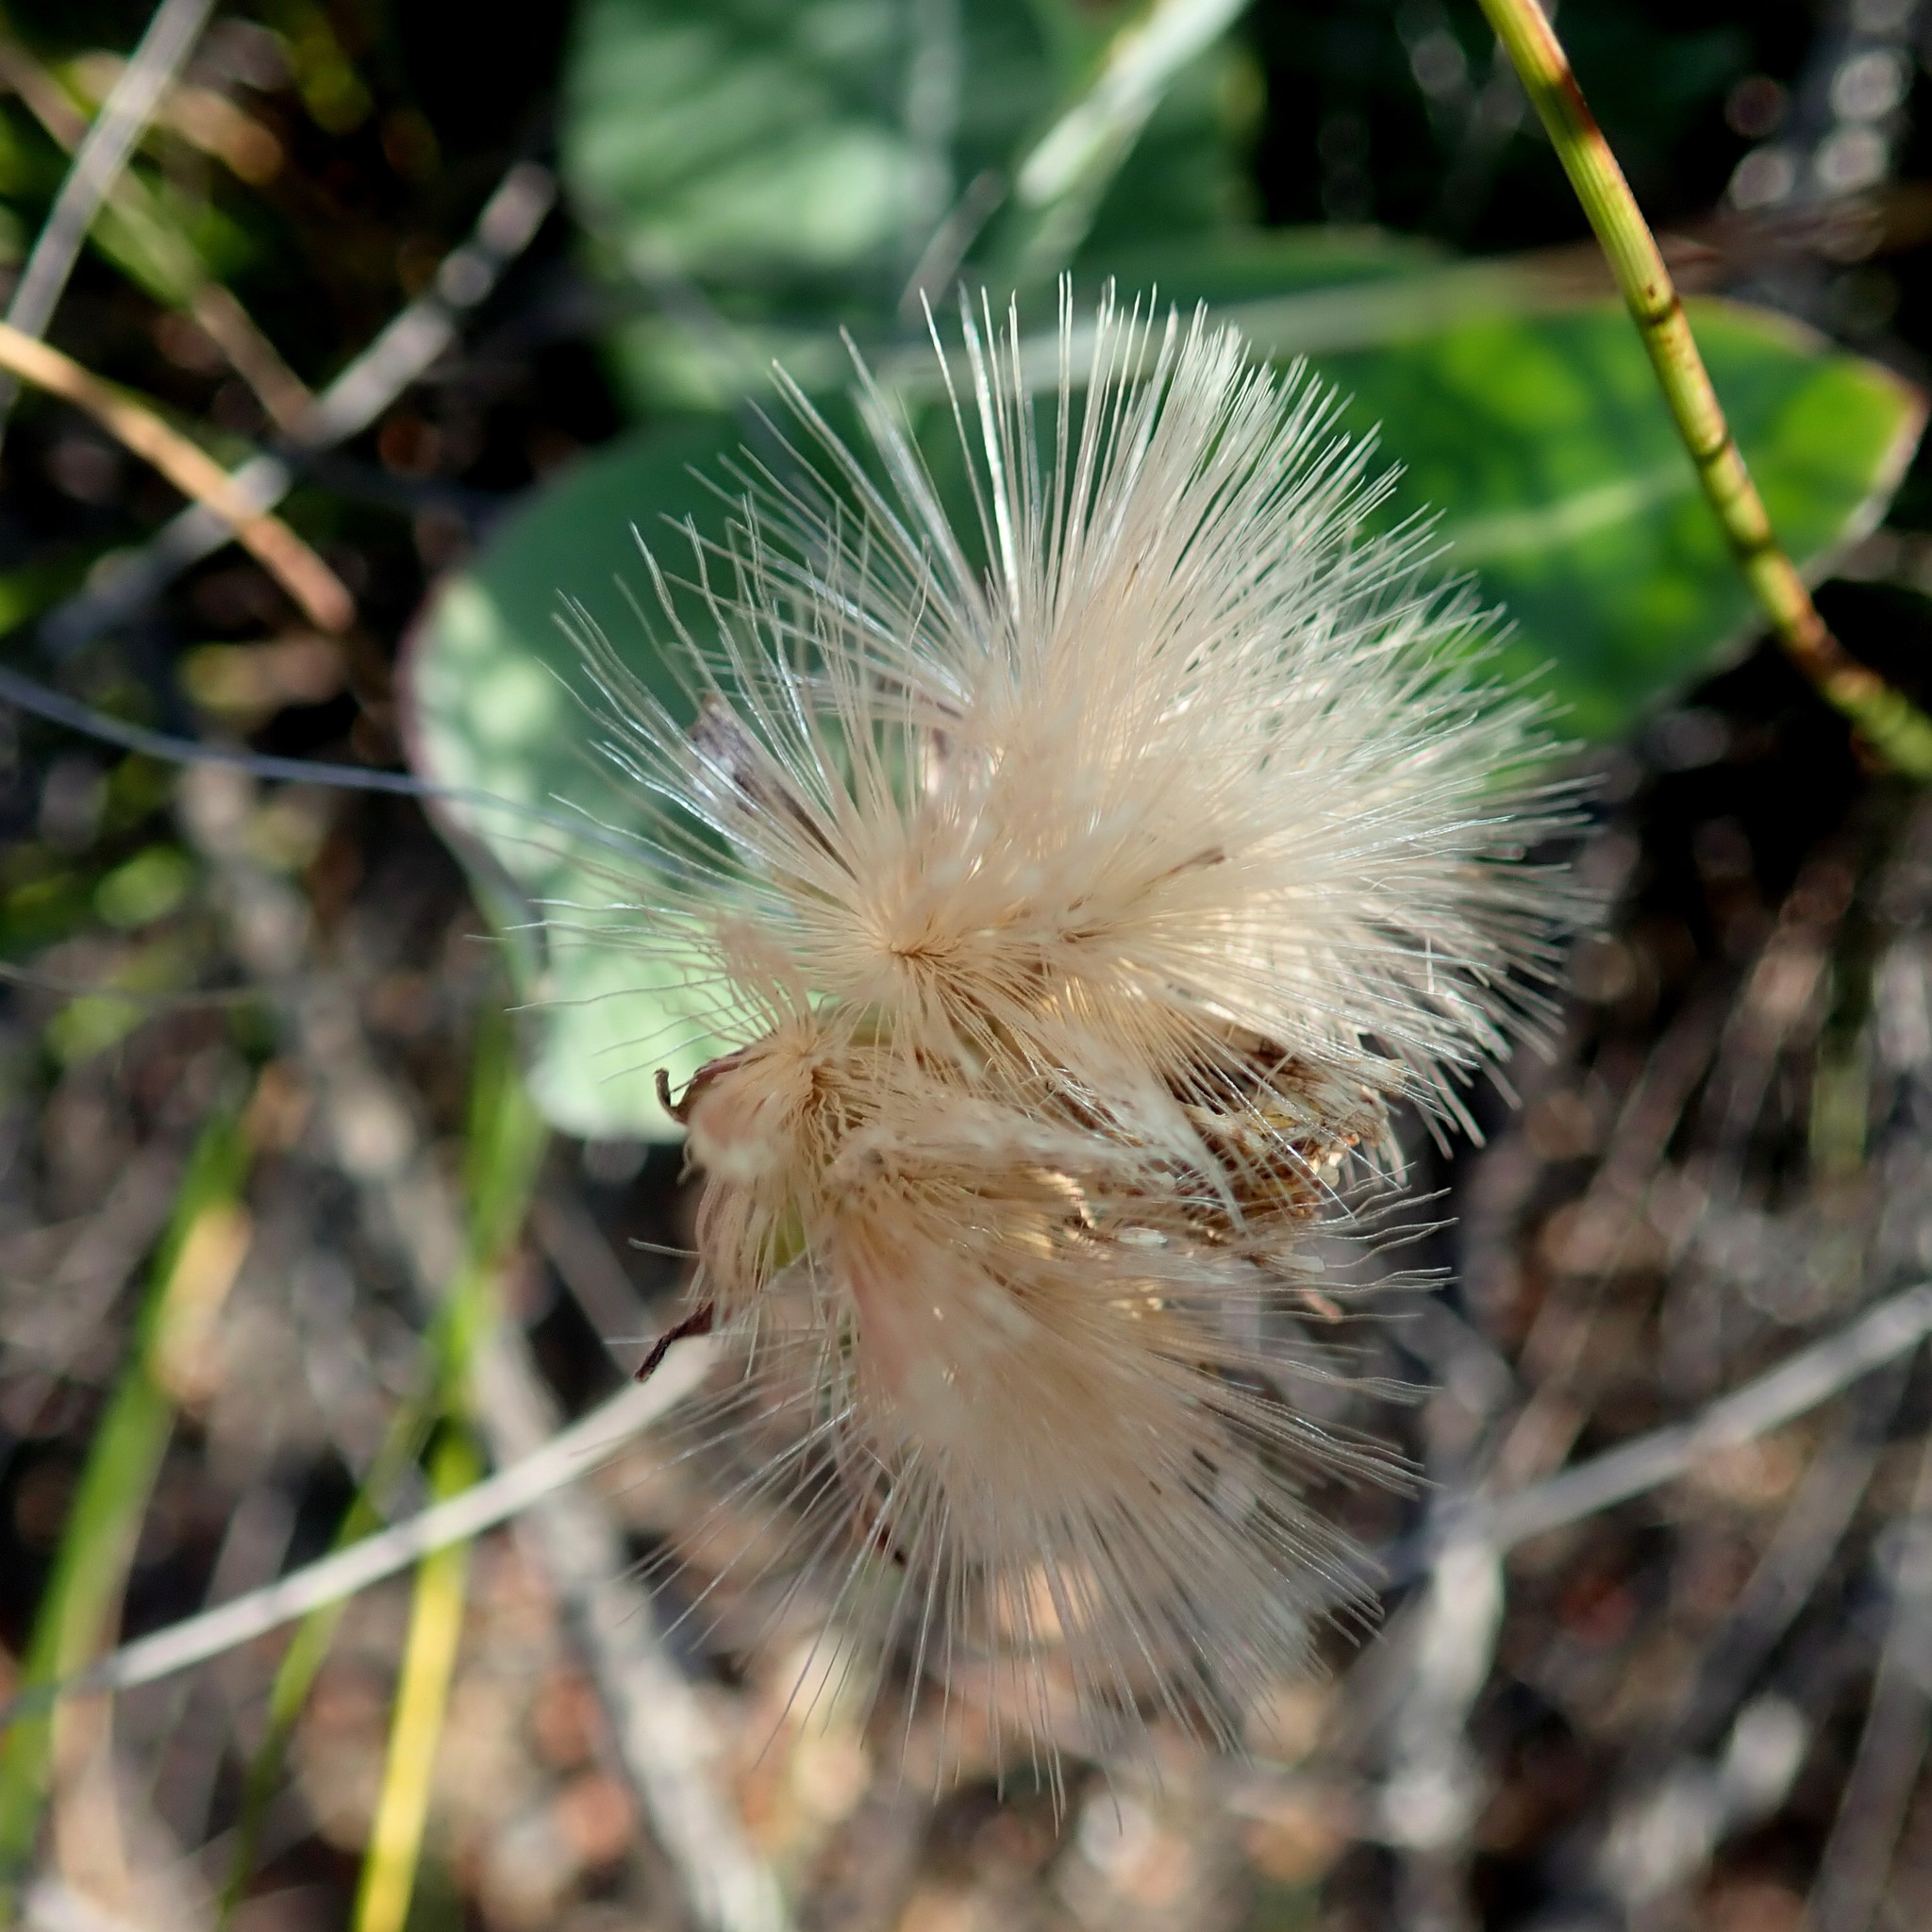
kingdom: Plantae
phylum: Tracheophyta
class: Magnoliopsida
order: Asterales
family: Asteraceae
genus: Othonna
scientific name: Othonna gymnodiscus
